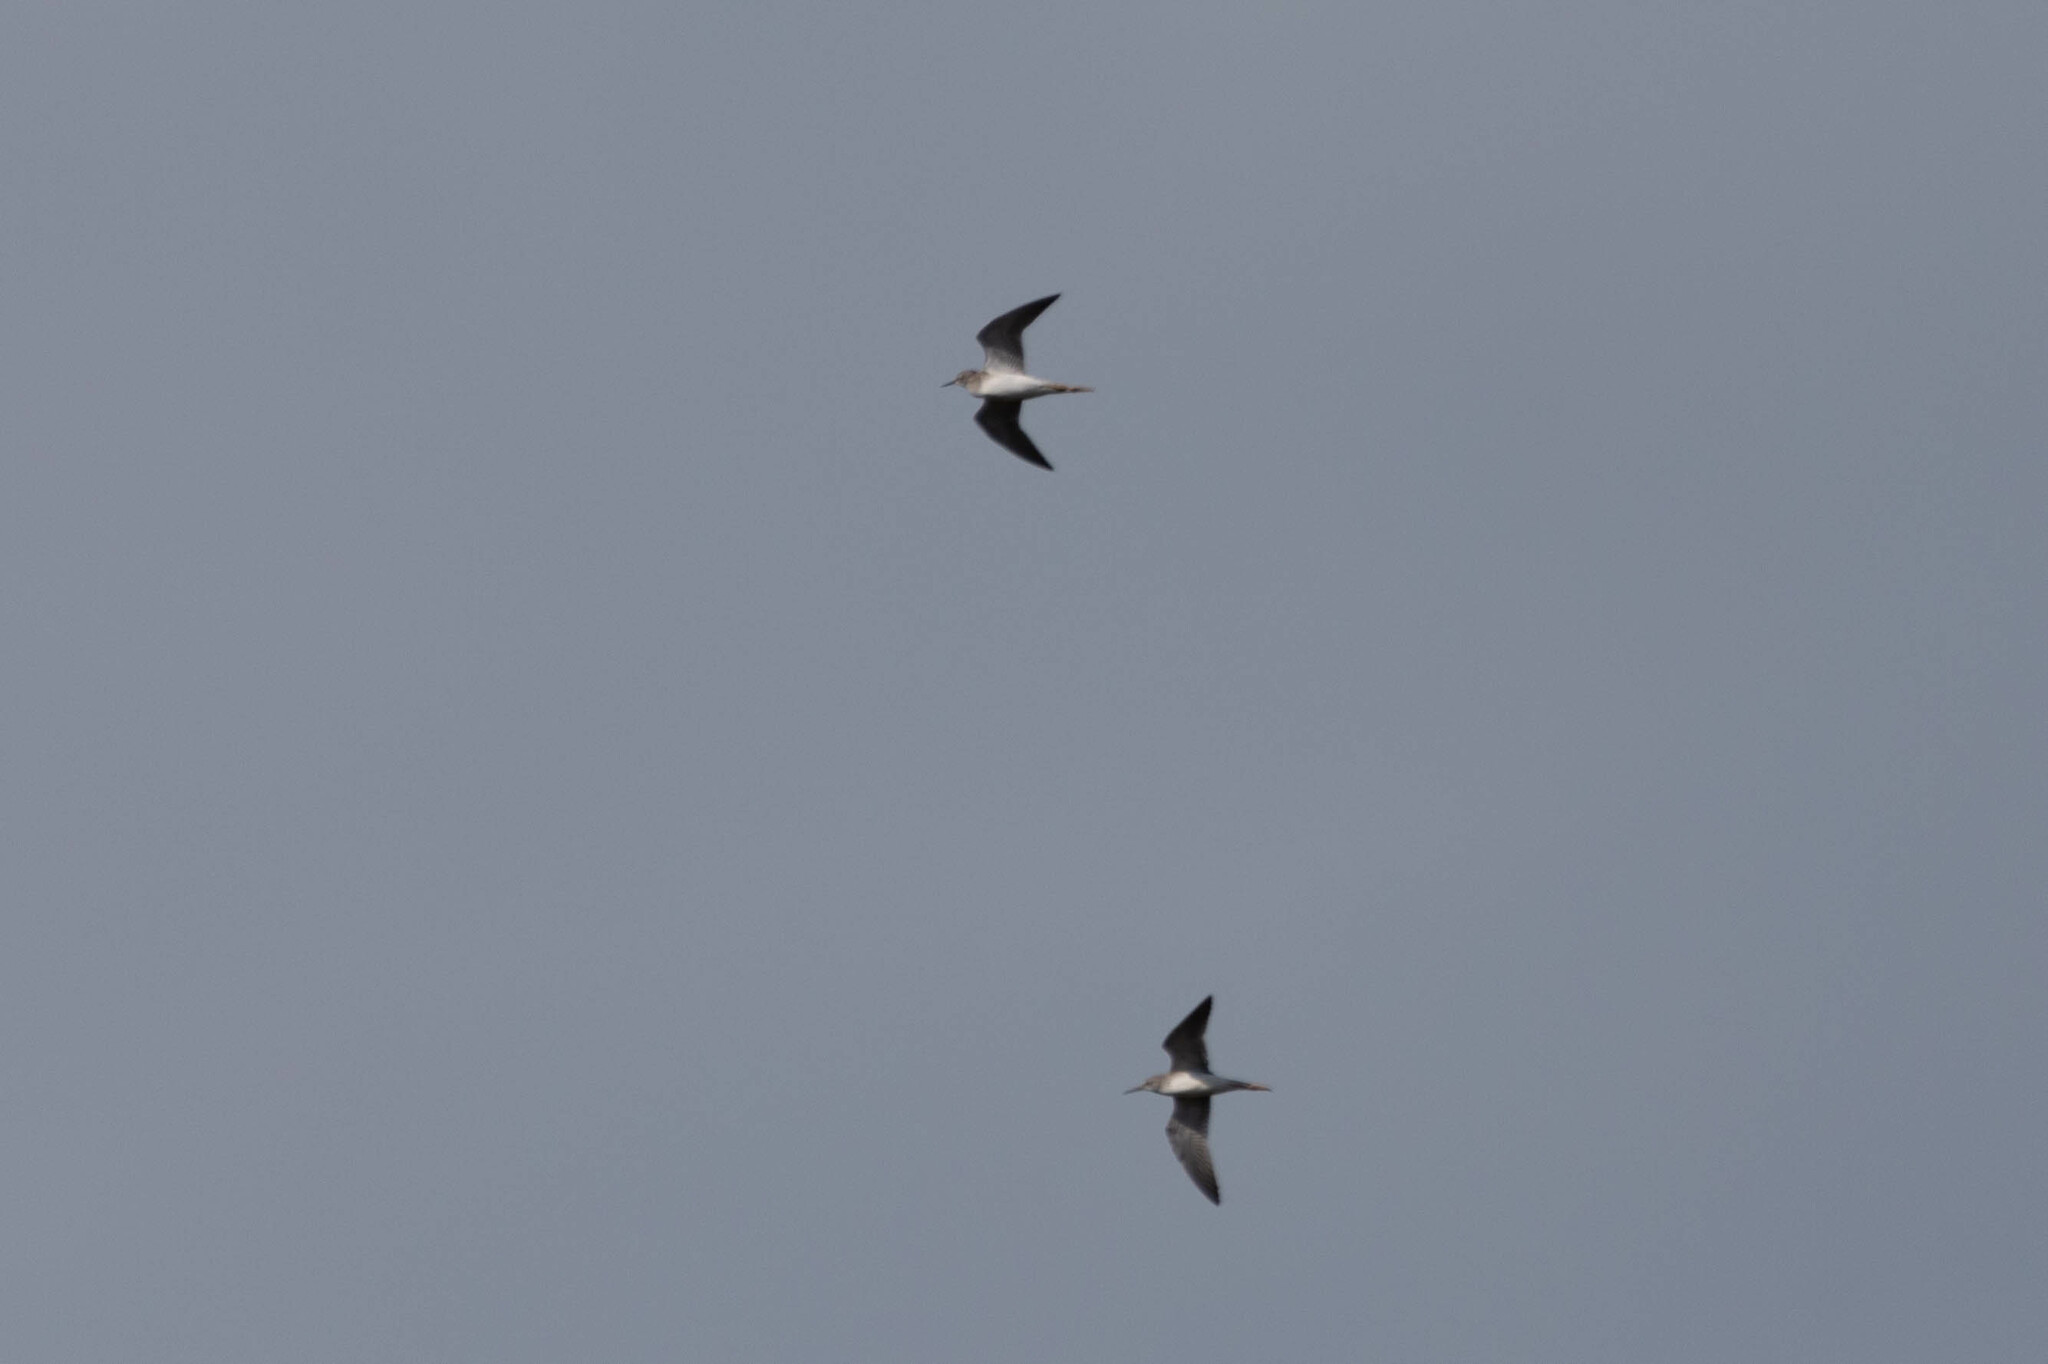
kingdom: Animalia
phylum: Chordata
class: Aves
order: Charadriiformes
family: Scolopacidae
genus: Tringa
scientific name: Tringa flavipes
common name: Lesser yellowlegs
